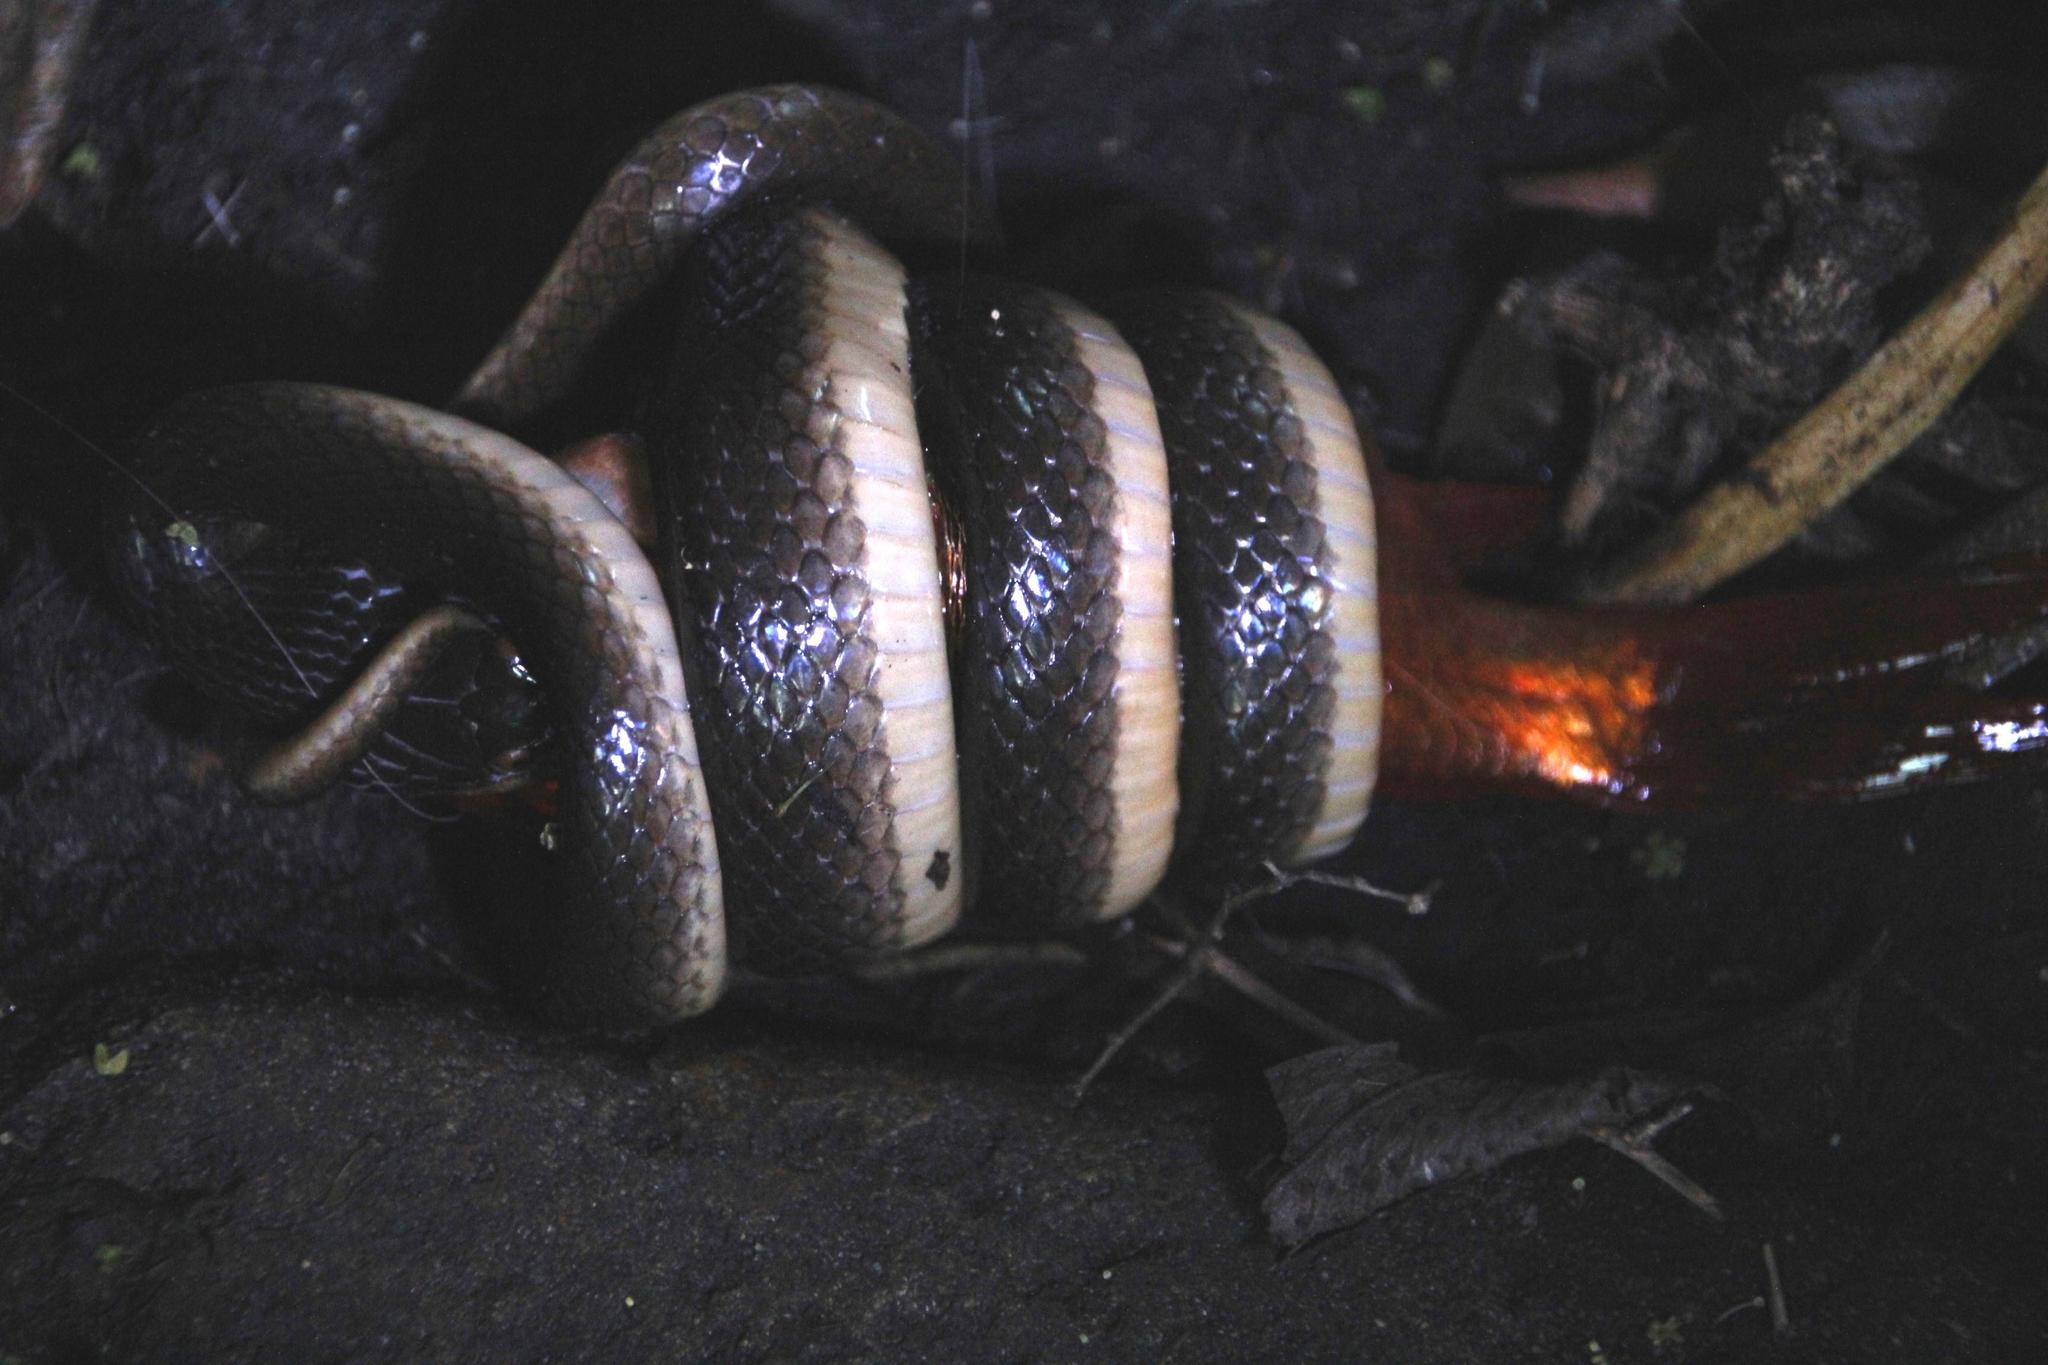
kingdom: Animalia
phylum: Chordata
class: Squamata
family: Lamprophiidae
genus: Lycodonomorphus
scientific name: Lycodonomorphus rufulus
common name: Brown water snake
